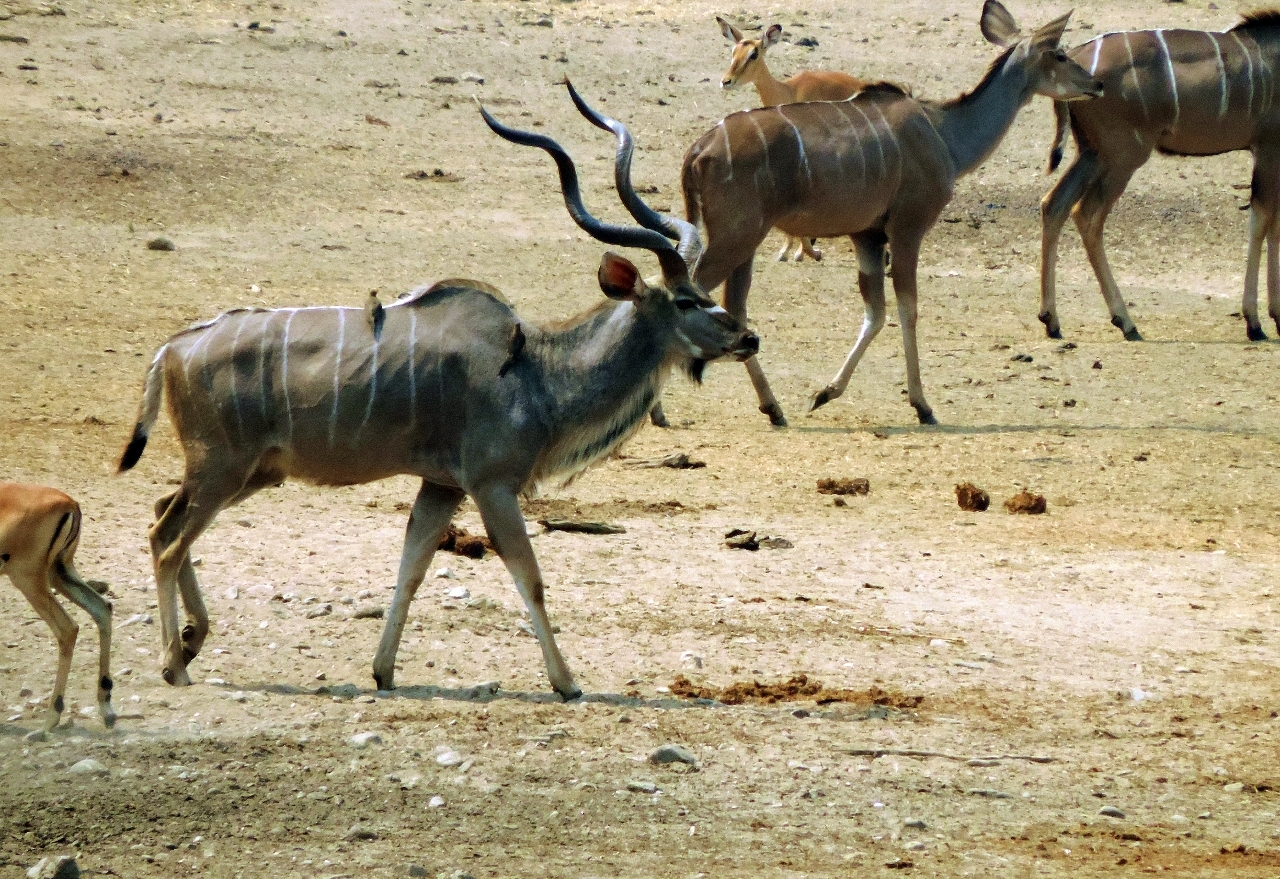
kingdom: Animalia
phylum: Chordata
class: Aves
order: Passeriformes
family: Buphagidae
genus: Buphagus
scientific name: Buphagus erythrorhynchus
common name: Red-billed oxpecker
